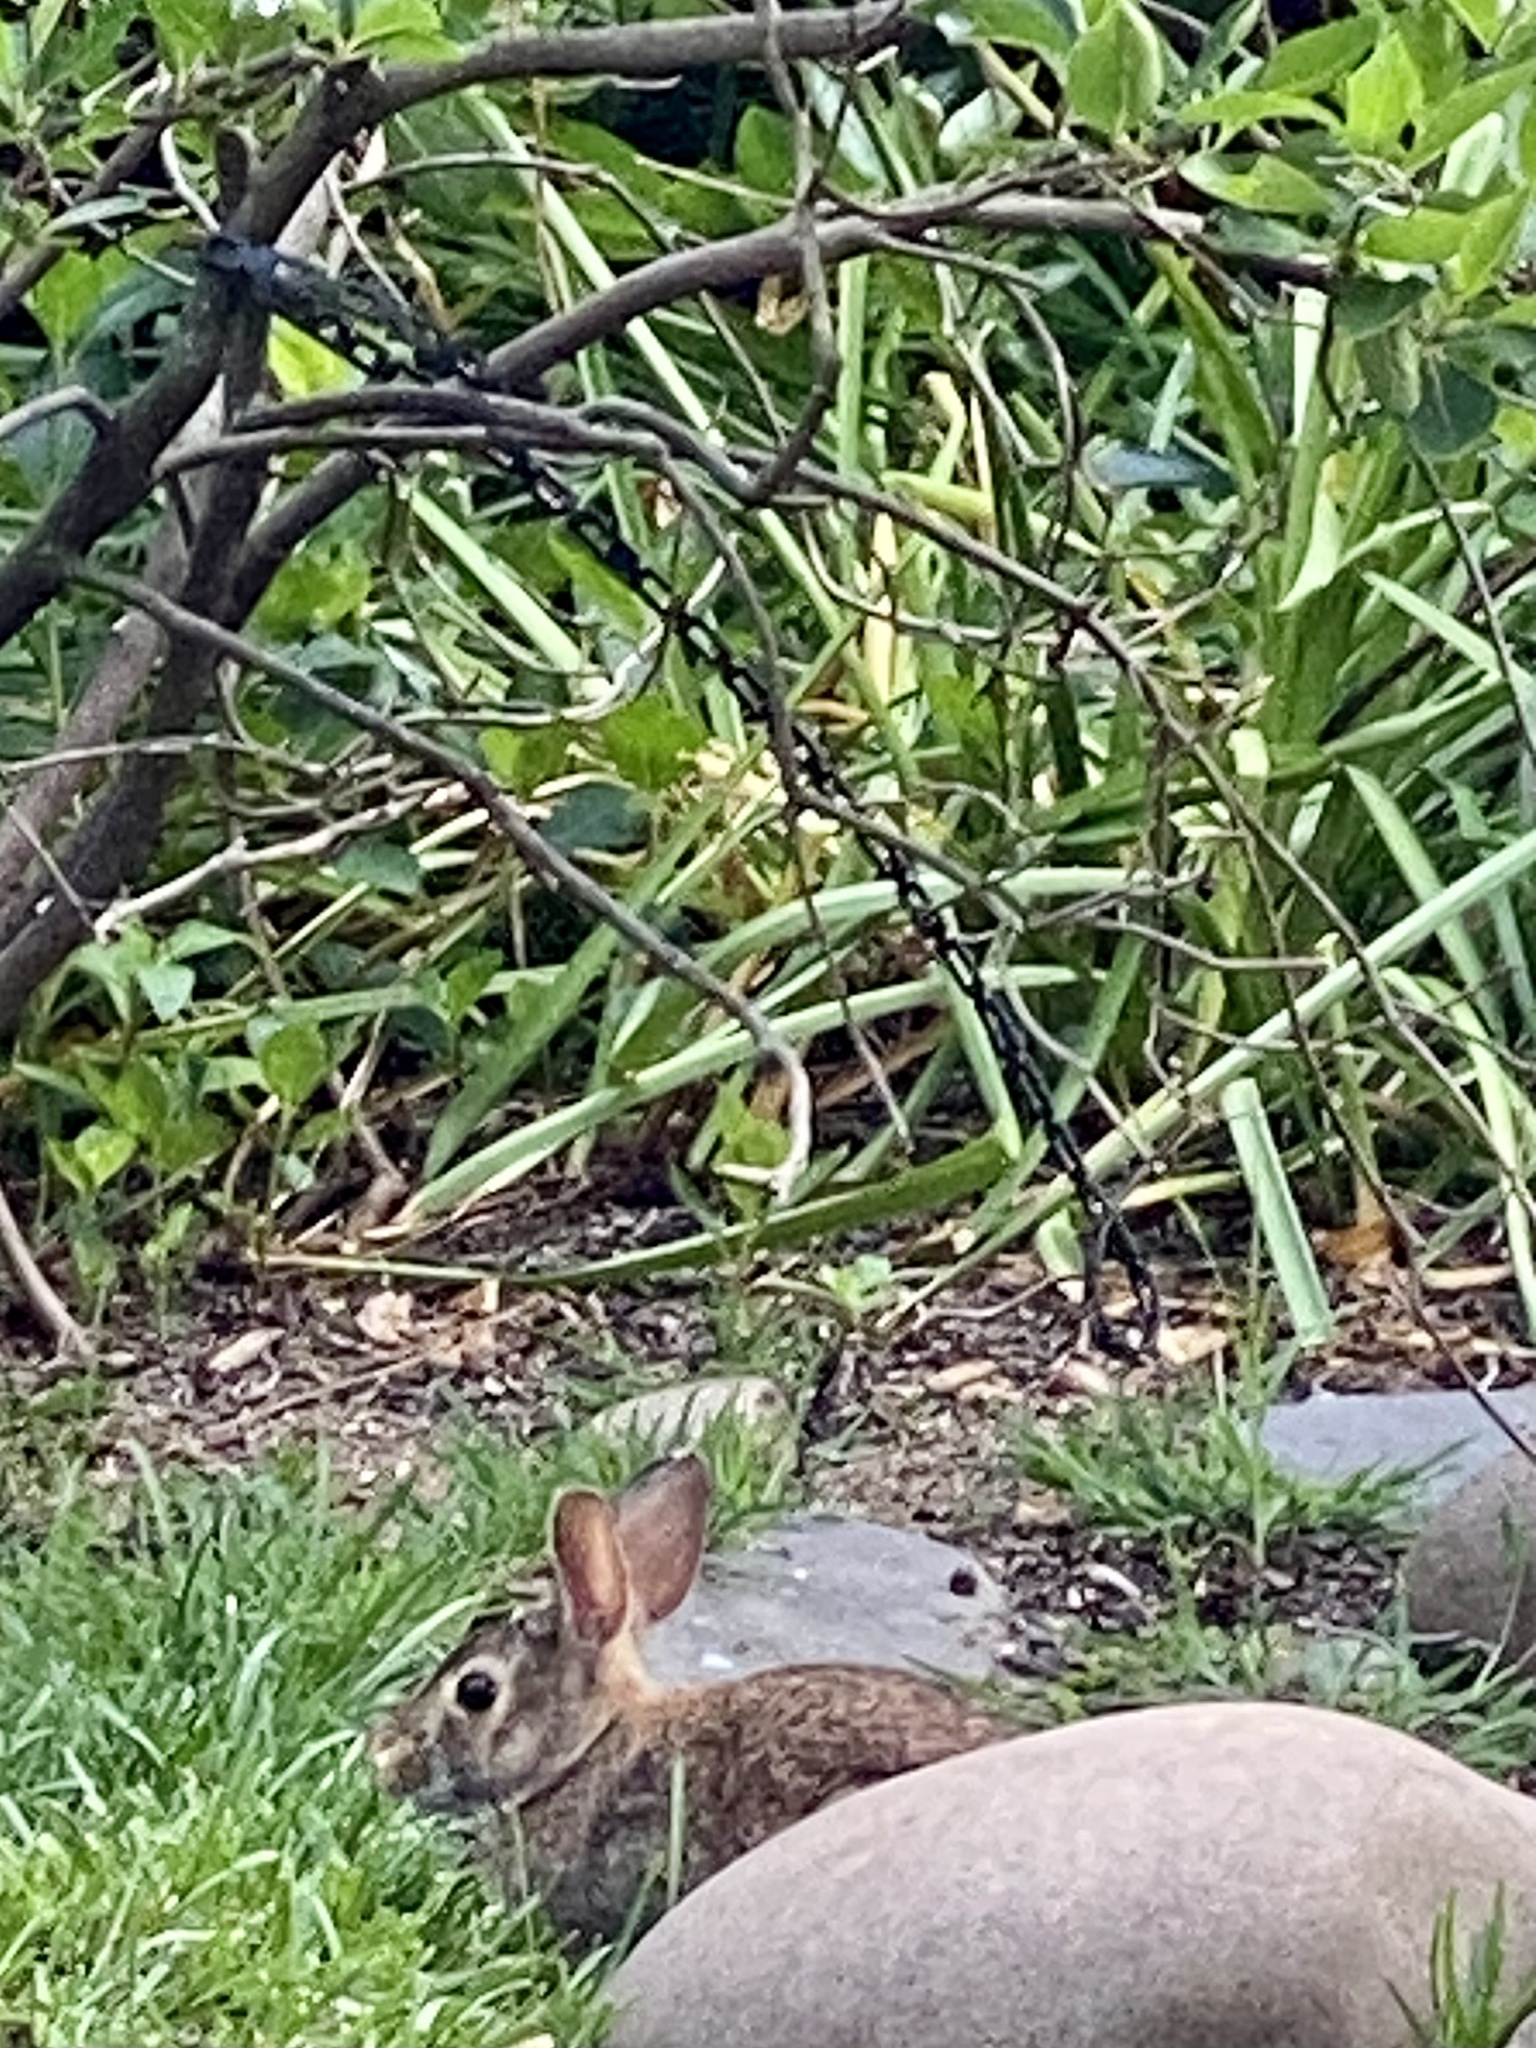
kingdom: Animalia
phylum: Chordata
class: Mammalia
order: Lagomorpha
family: Leporidae
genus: Sylvilagus
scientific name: Sylvilagus floridanus
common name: Eastern cottontail
